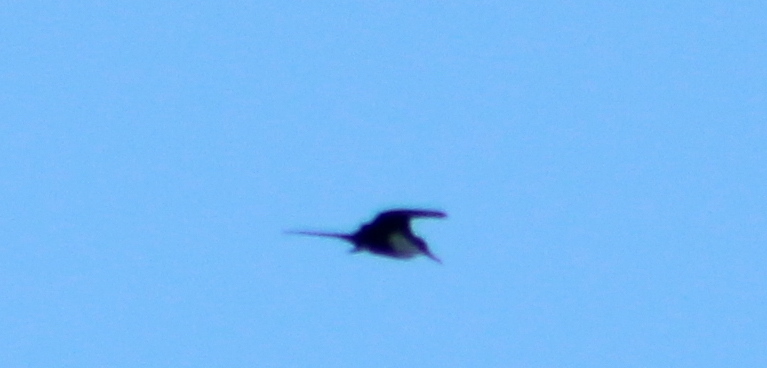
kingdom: Animalia
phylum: Chordata
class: Aves
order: Suliformes
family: Fregatidae
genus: Fregata
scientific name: Fregata minor
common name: Great frigatebird
